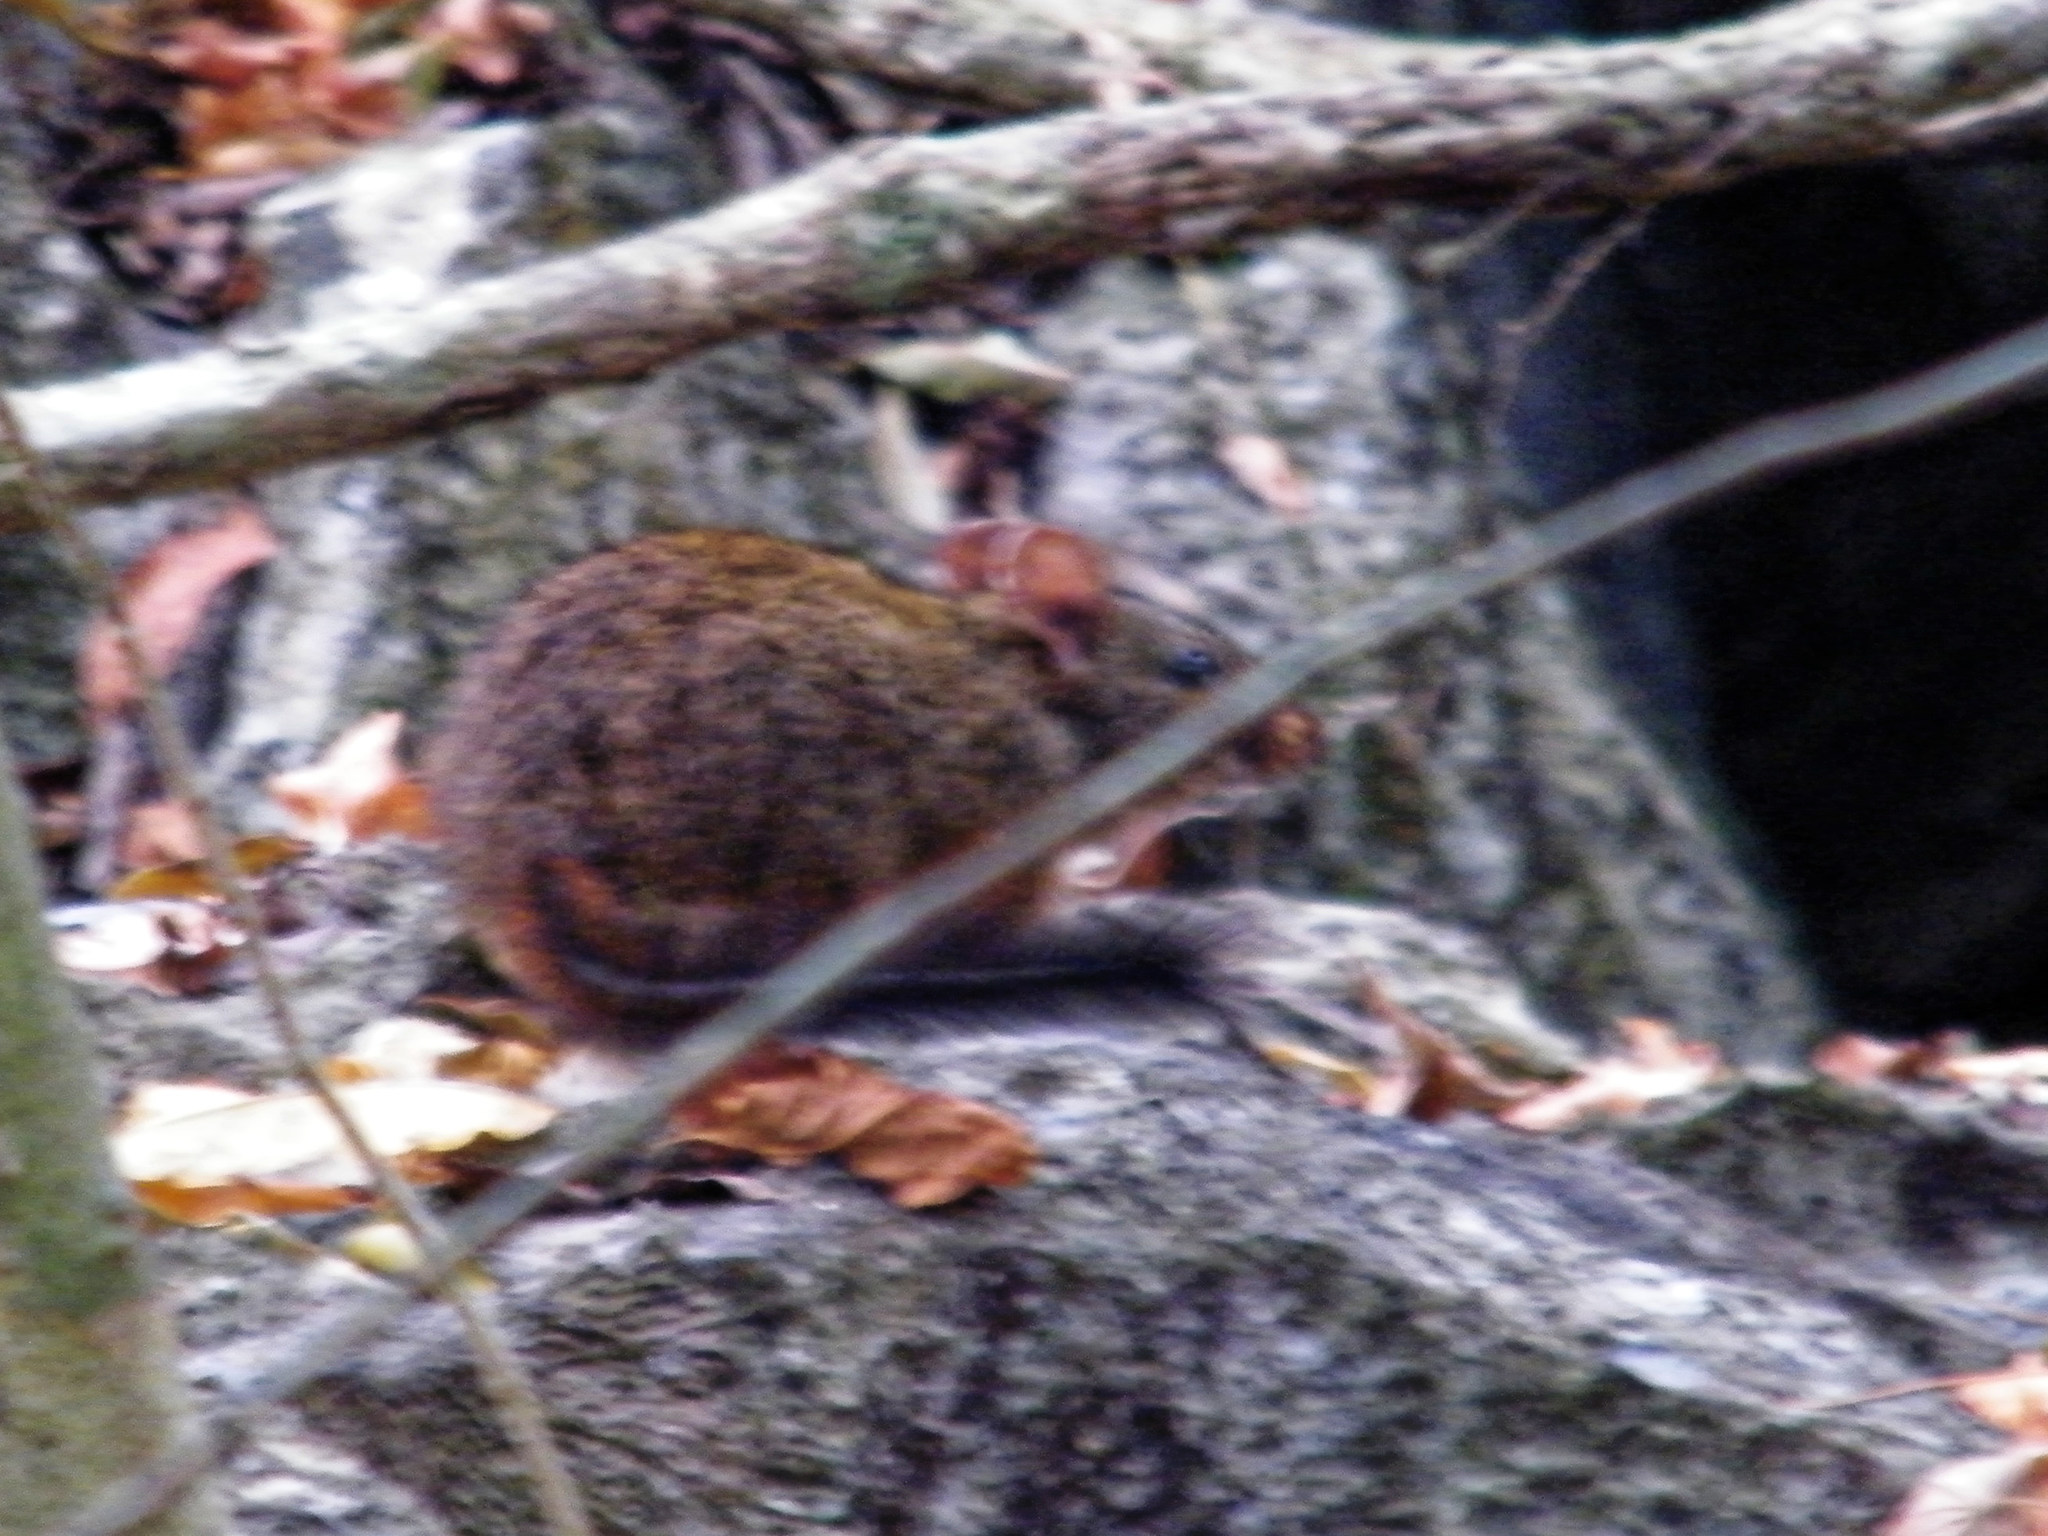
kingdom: Animalia
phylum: Chordata
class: Mammalia
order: Rodentia
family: Nesomyidae
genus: Nesomys
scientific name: Nesomys lambertoni
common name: Western nesomys
